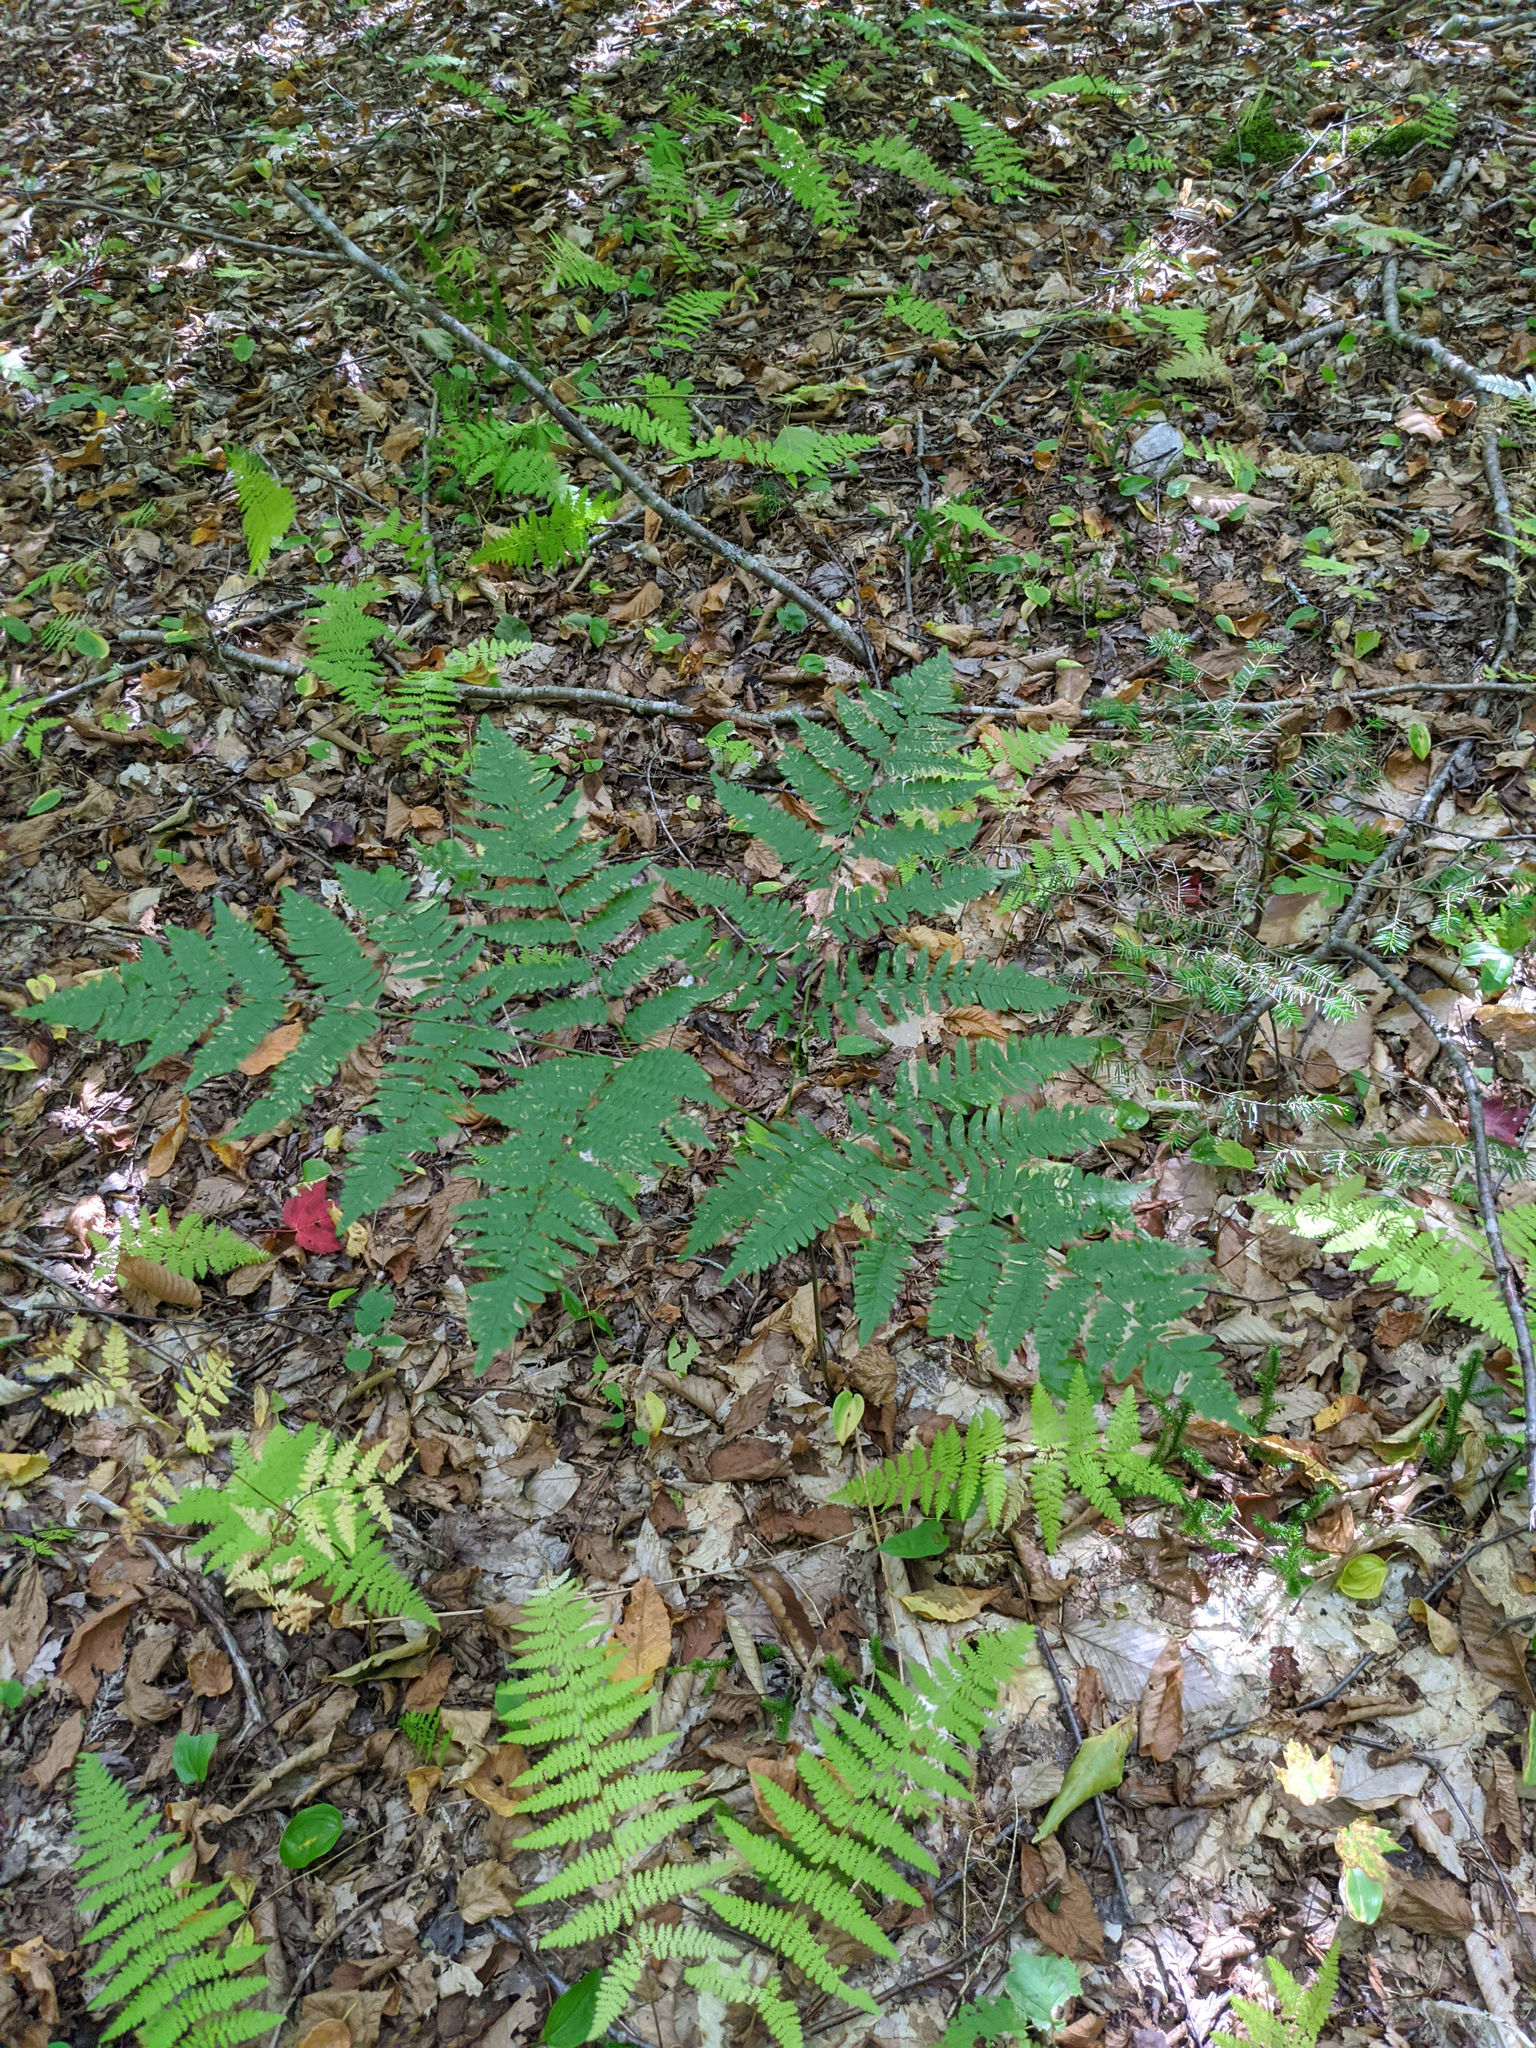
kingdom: Plantae
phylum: Tracheophyta
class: Polypodiopsida
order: Polypodiales
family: Dennstaedtiaceae
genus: Pteridium
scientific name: Pteridium aquilinum
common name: Bracken
